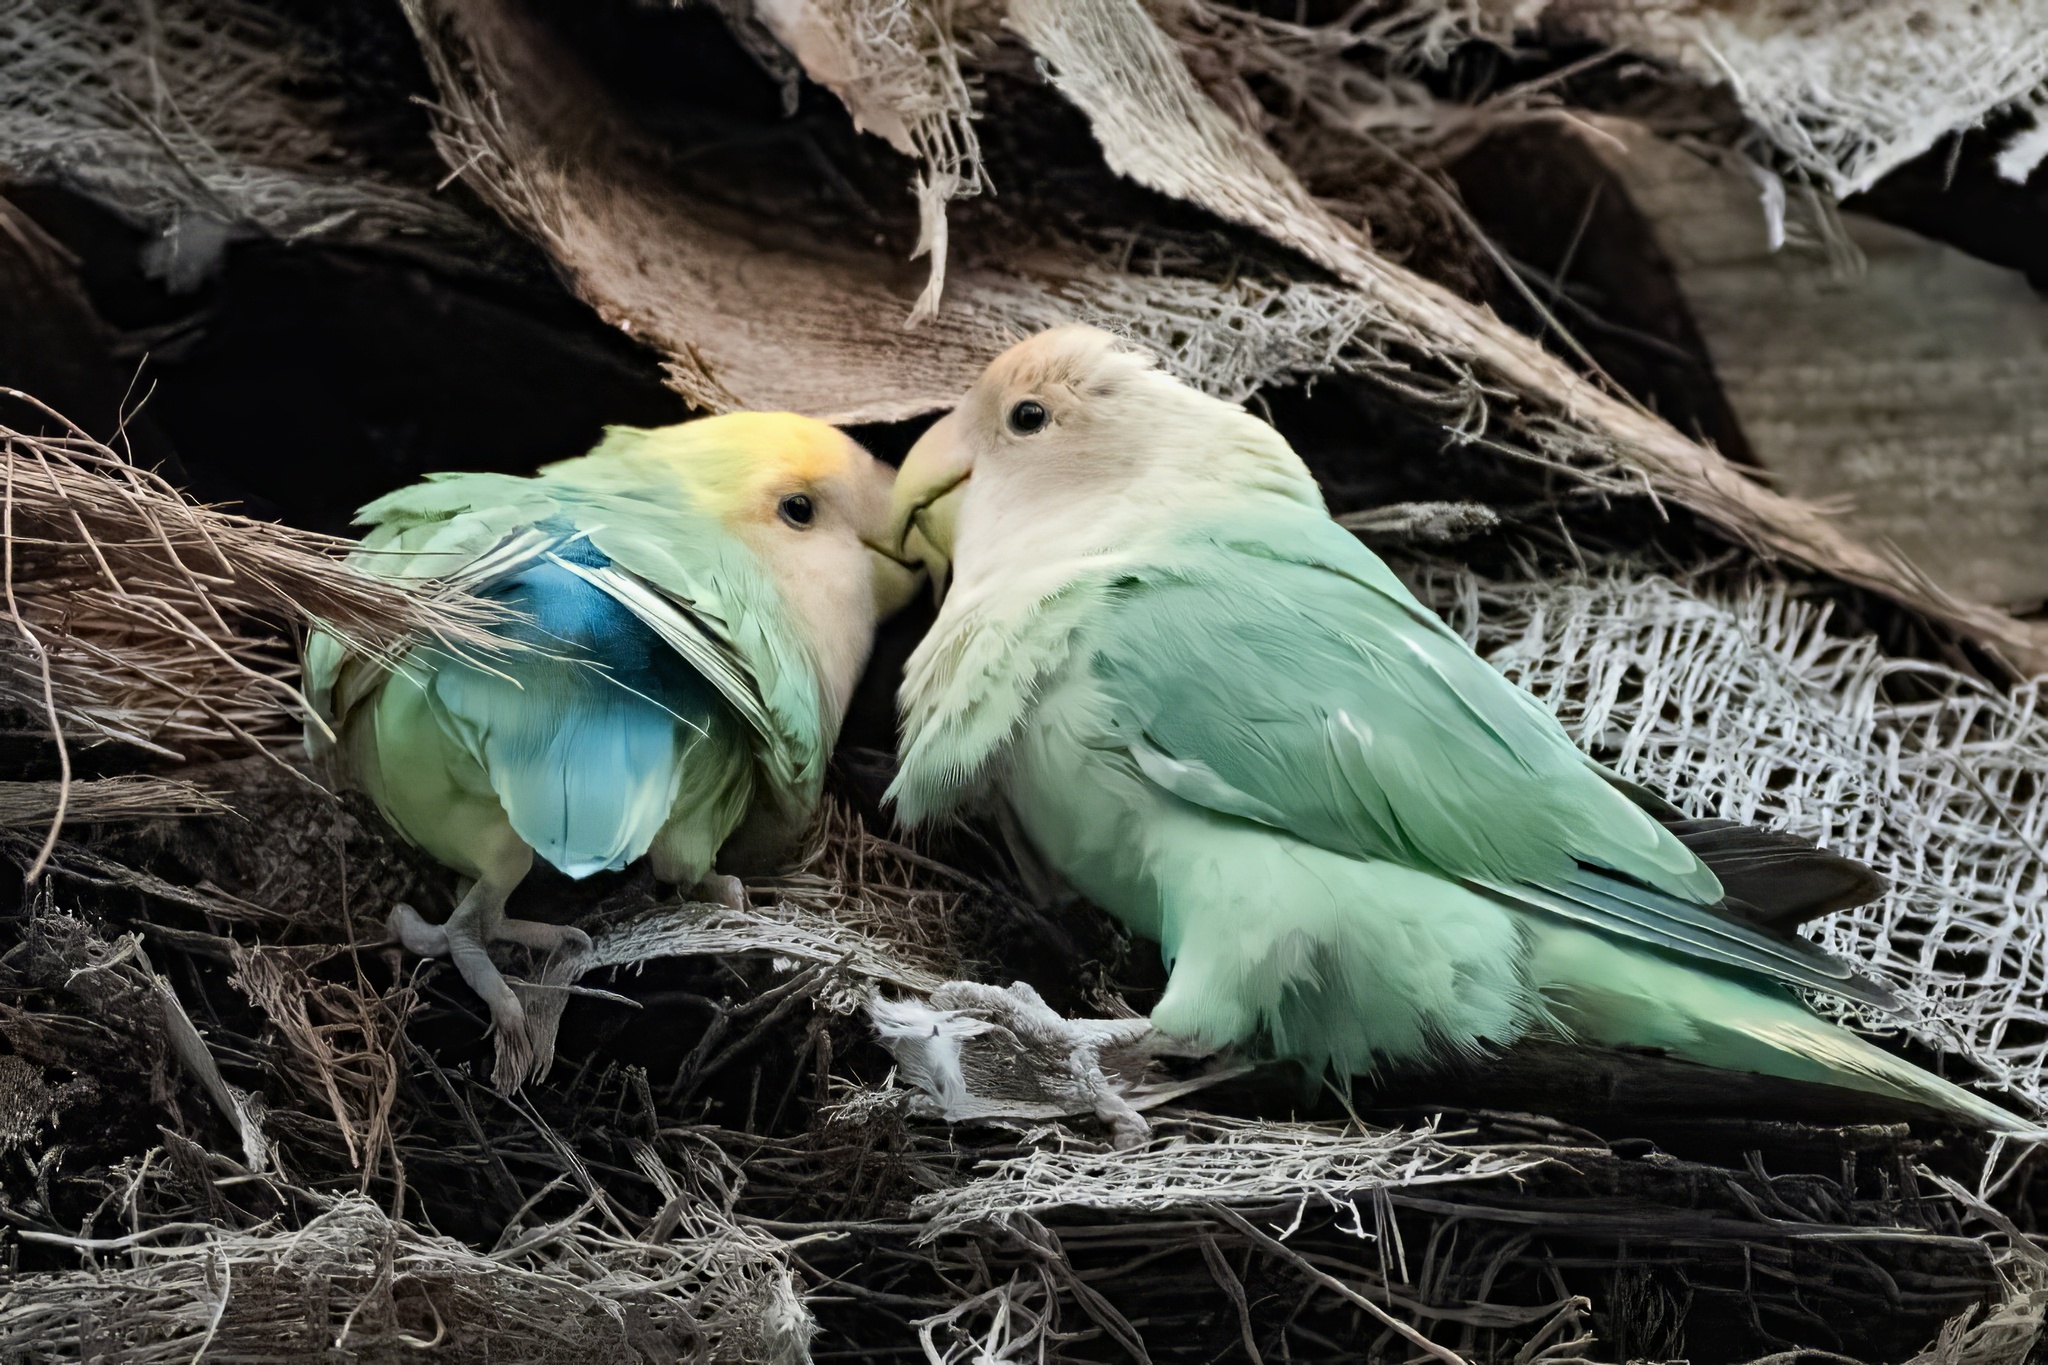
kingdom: Animalia
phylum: Chordata
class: Aves
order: Psittaciformes
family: Psittacidae
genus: Agapornis
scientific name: Agapornis roseicollis
